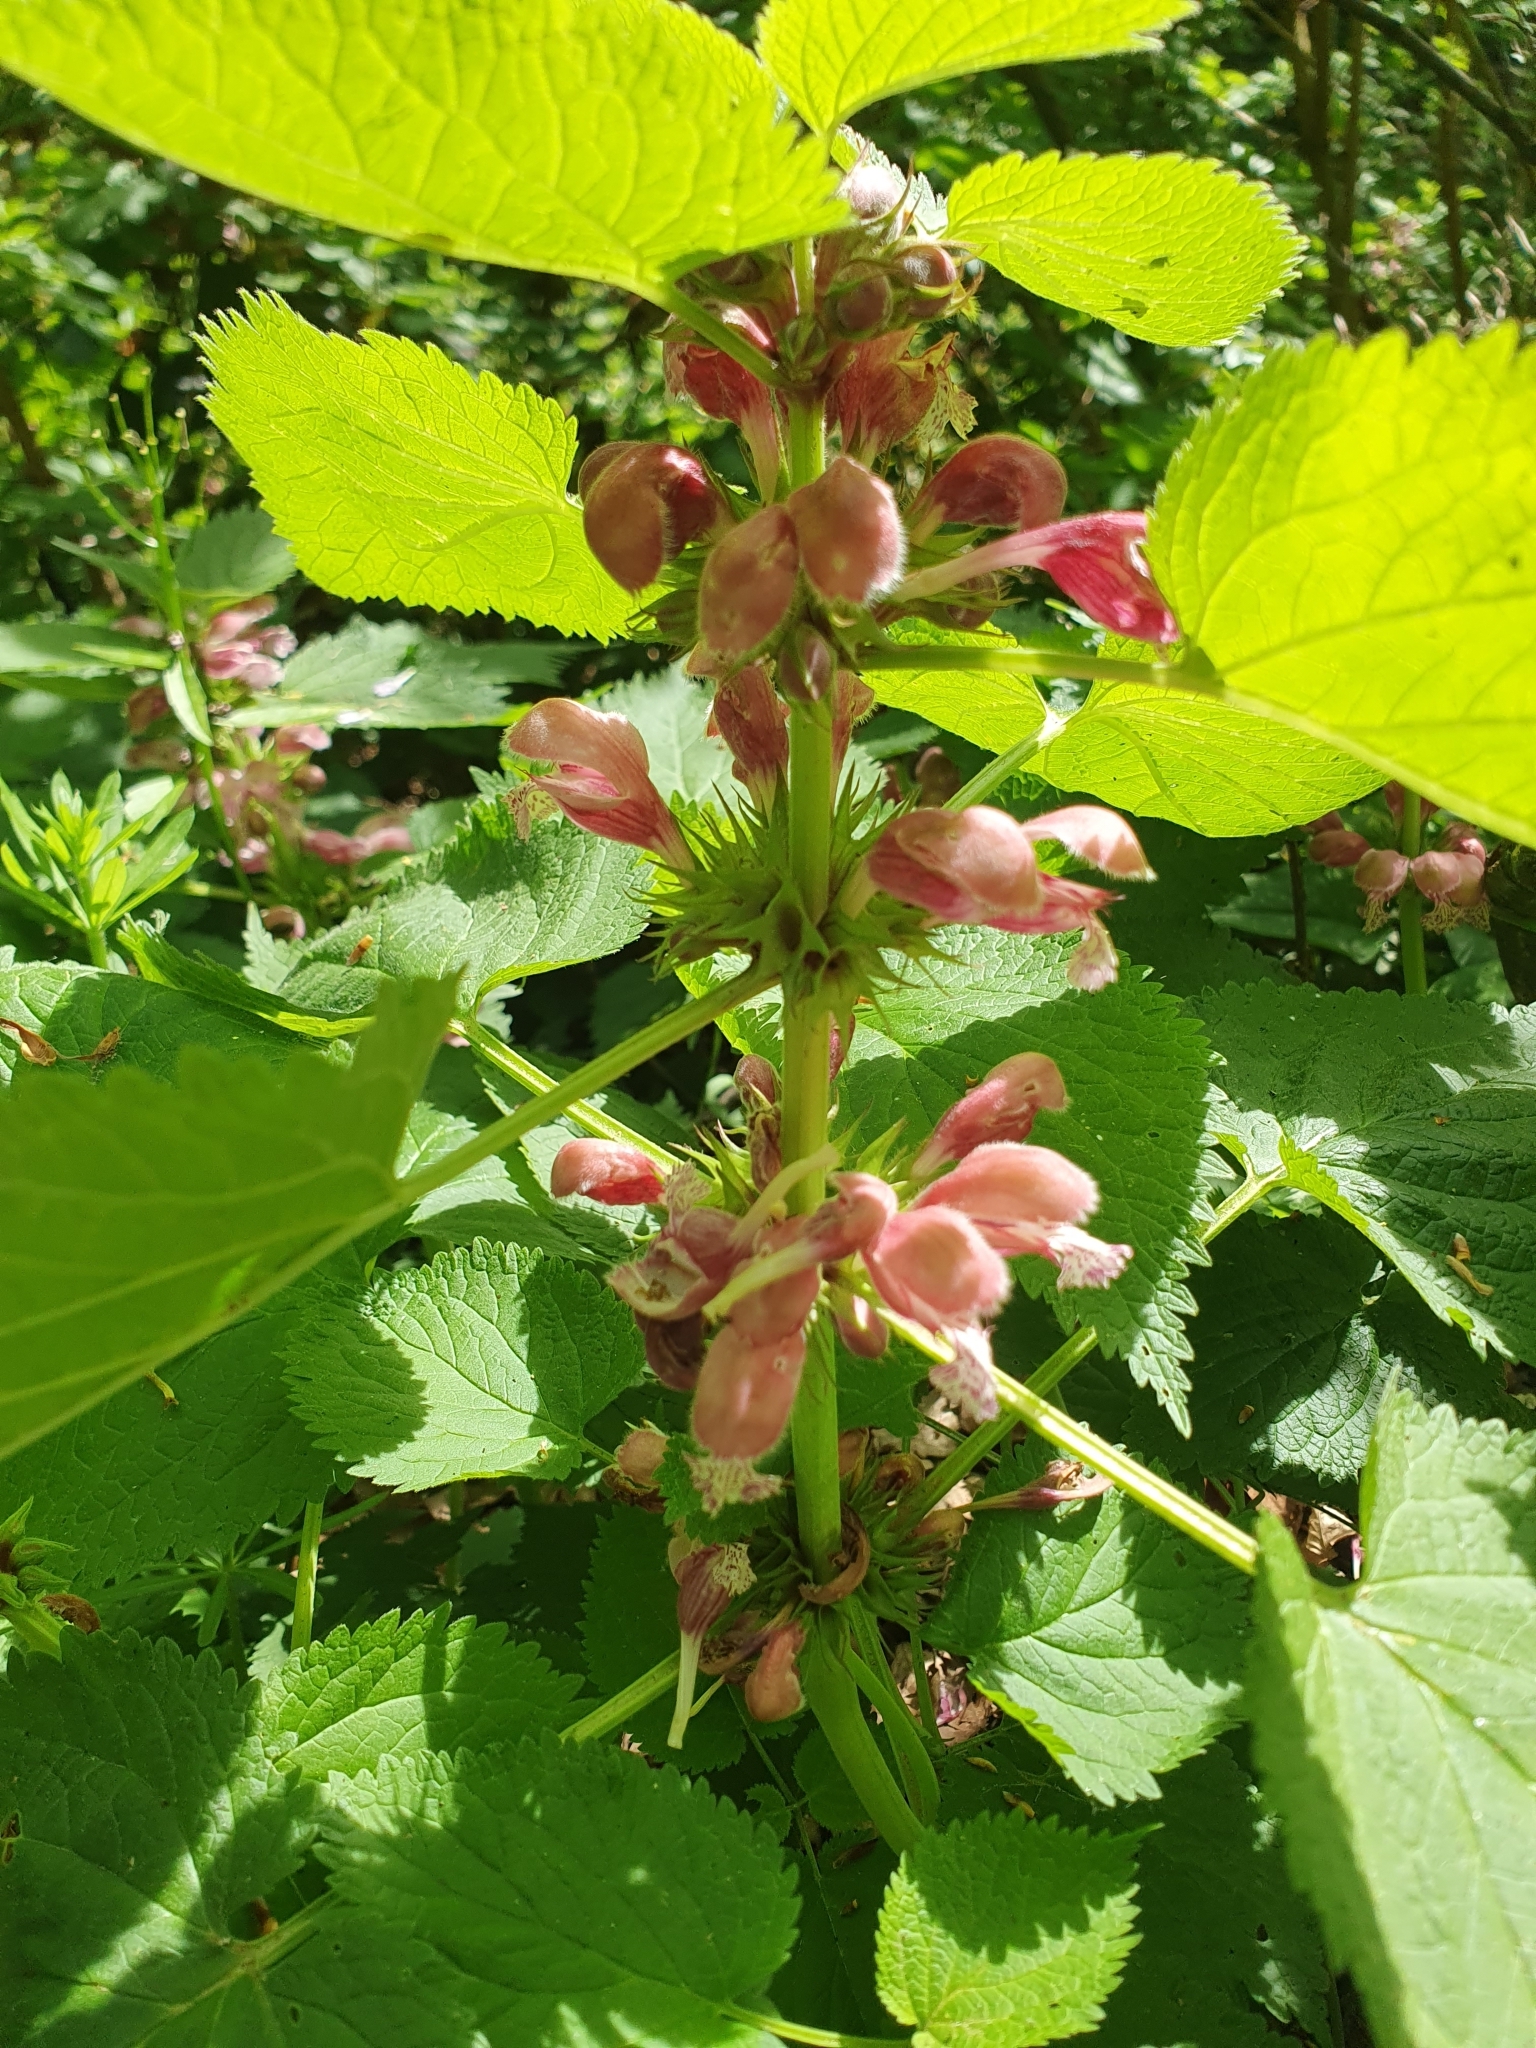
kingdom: Plantae
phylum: Tracheophyta
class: Magnoliopsida
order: Lamiales
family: Lamiaceae
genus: Lamium
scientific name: Lamium orvala
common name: Balm-leaved archangel
